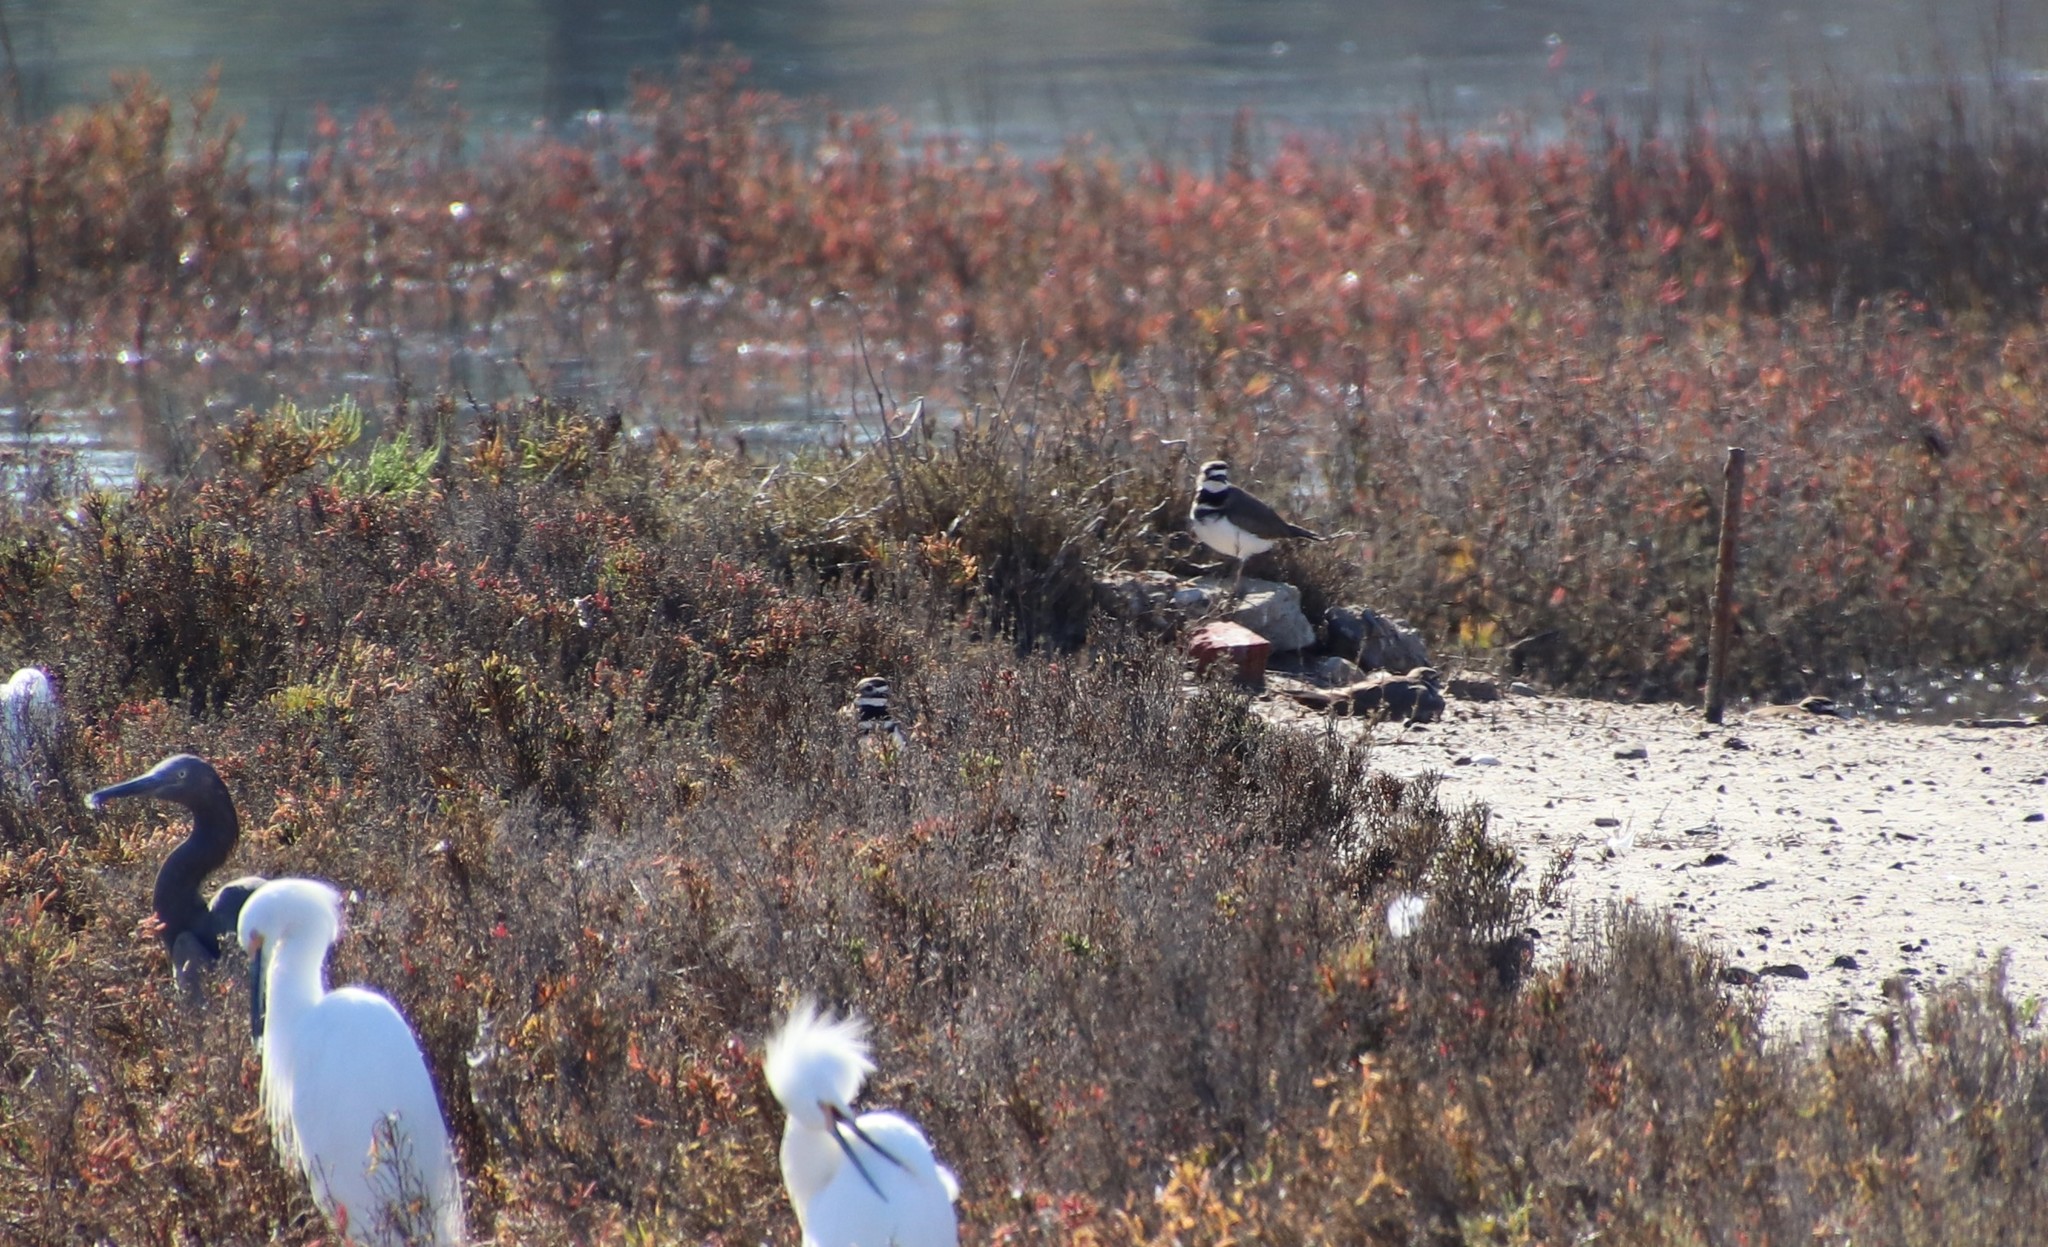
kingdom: Animalia
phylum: Chordata
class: Aves
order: Charadriiformes
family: Charadriidae
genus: Charadrius
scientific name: Charadrius vociferus
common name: Killdeer
